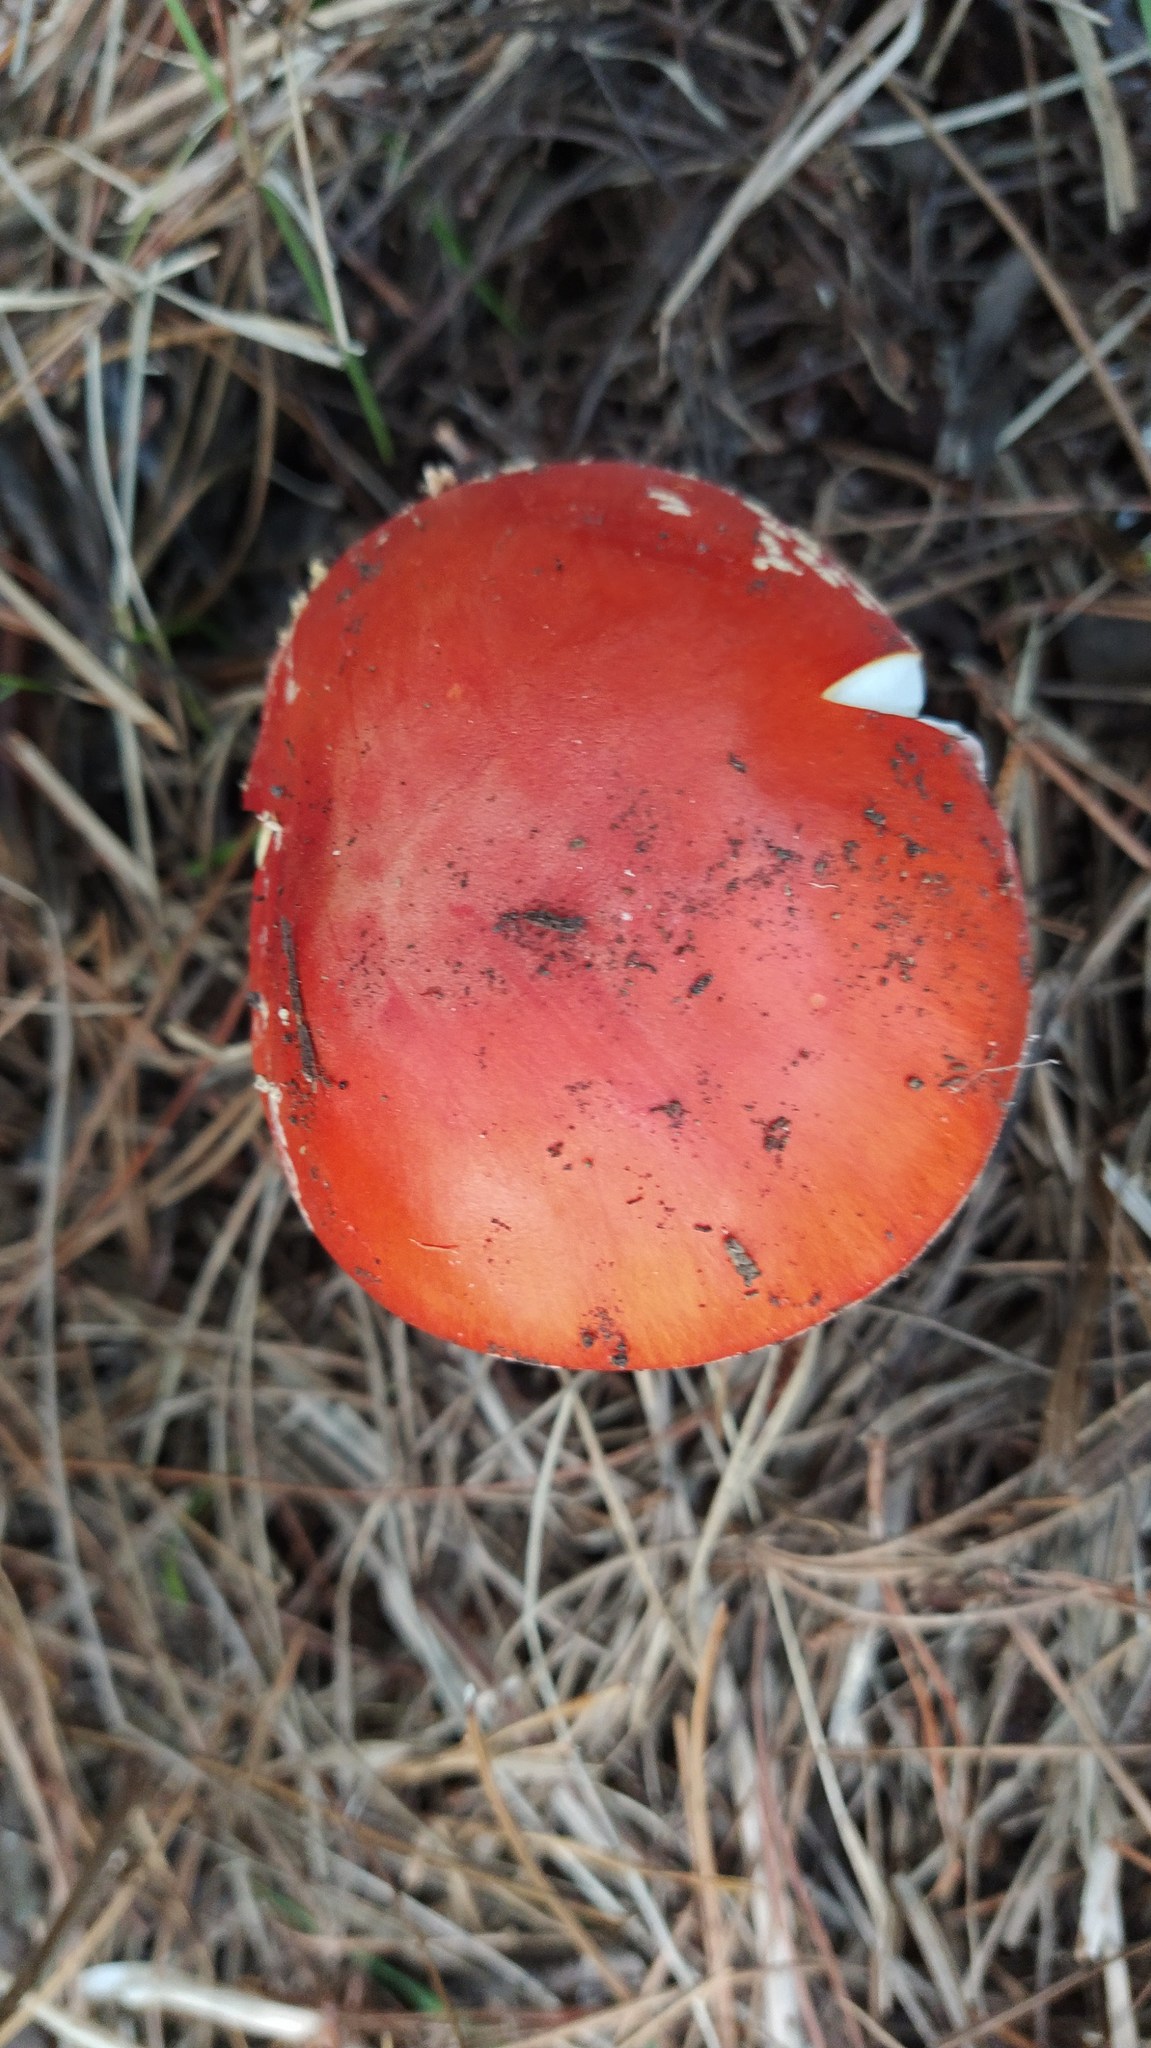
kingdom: Fungi
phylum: Basidiomycota
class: Agaricomycetes
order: Agaricales
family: Amanitaceae
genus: Amanita
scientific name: Amanita muscaria
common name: Fly agaric
